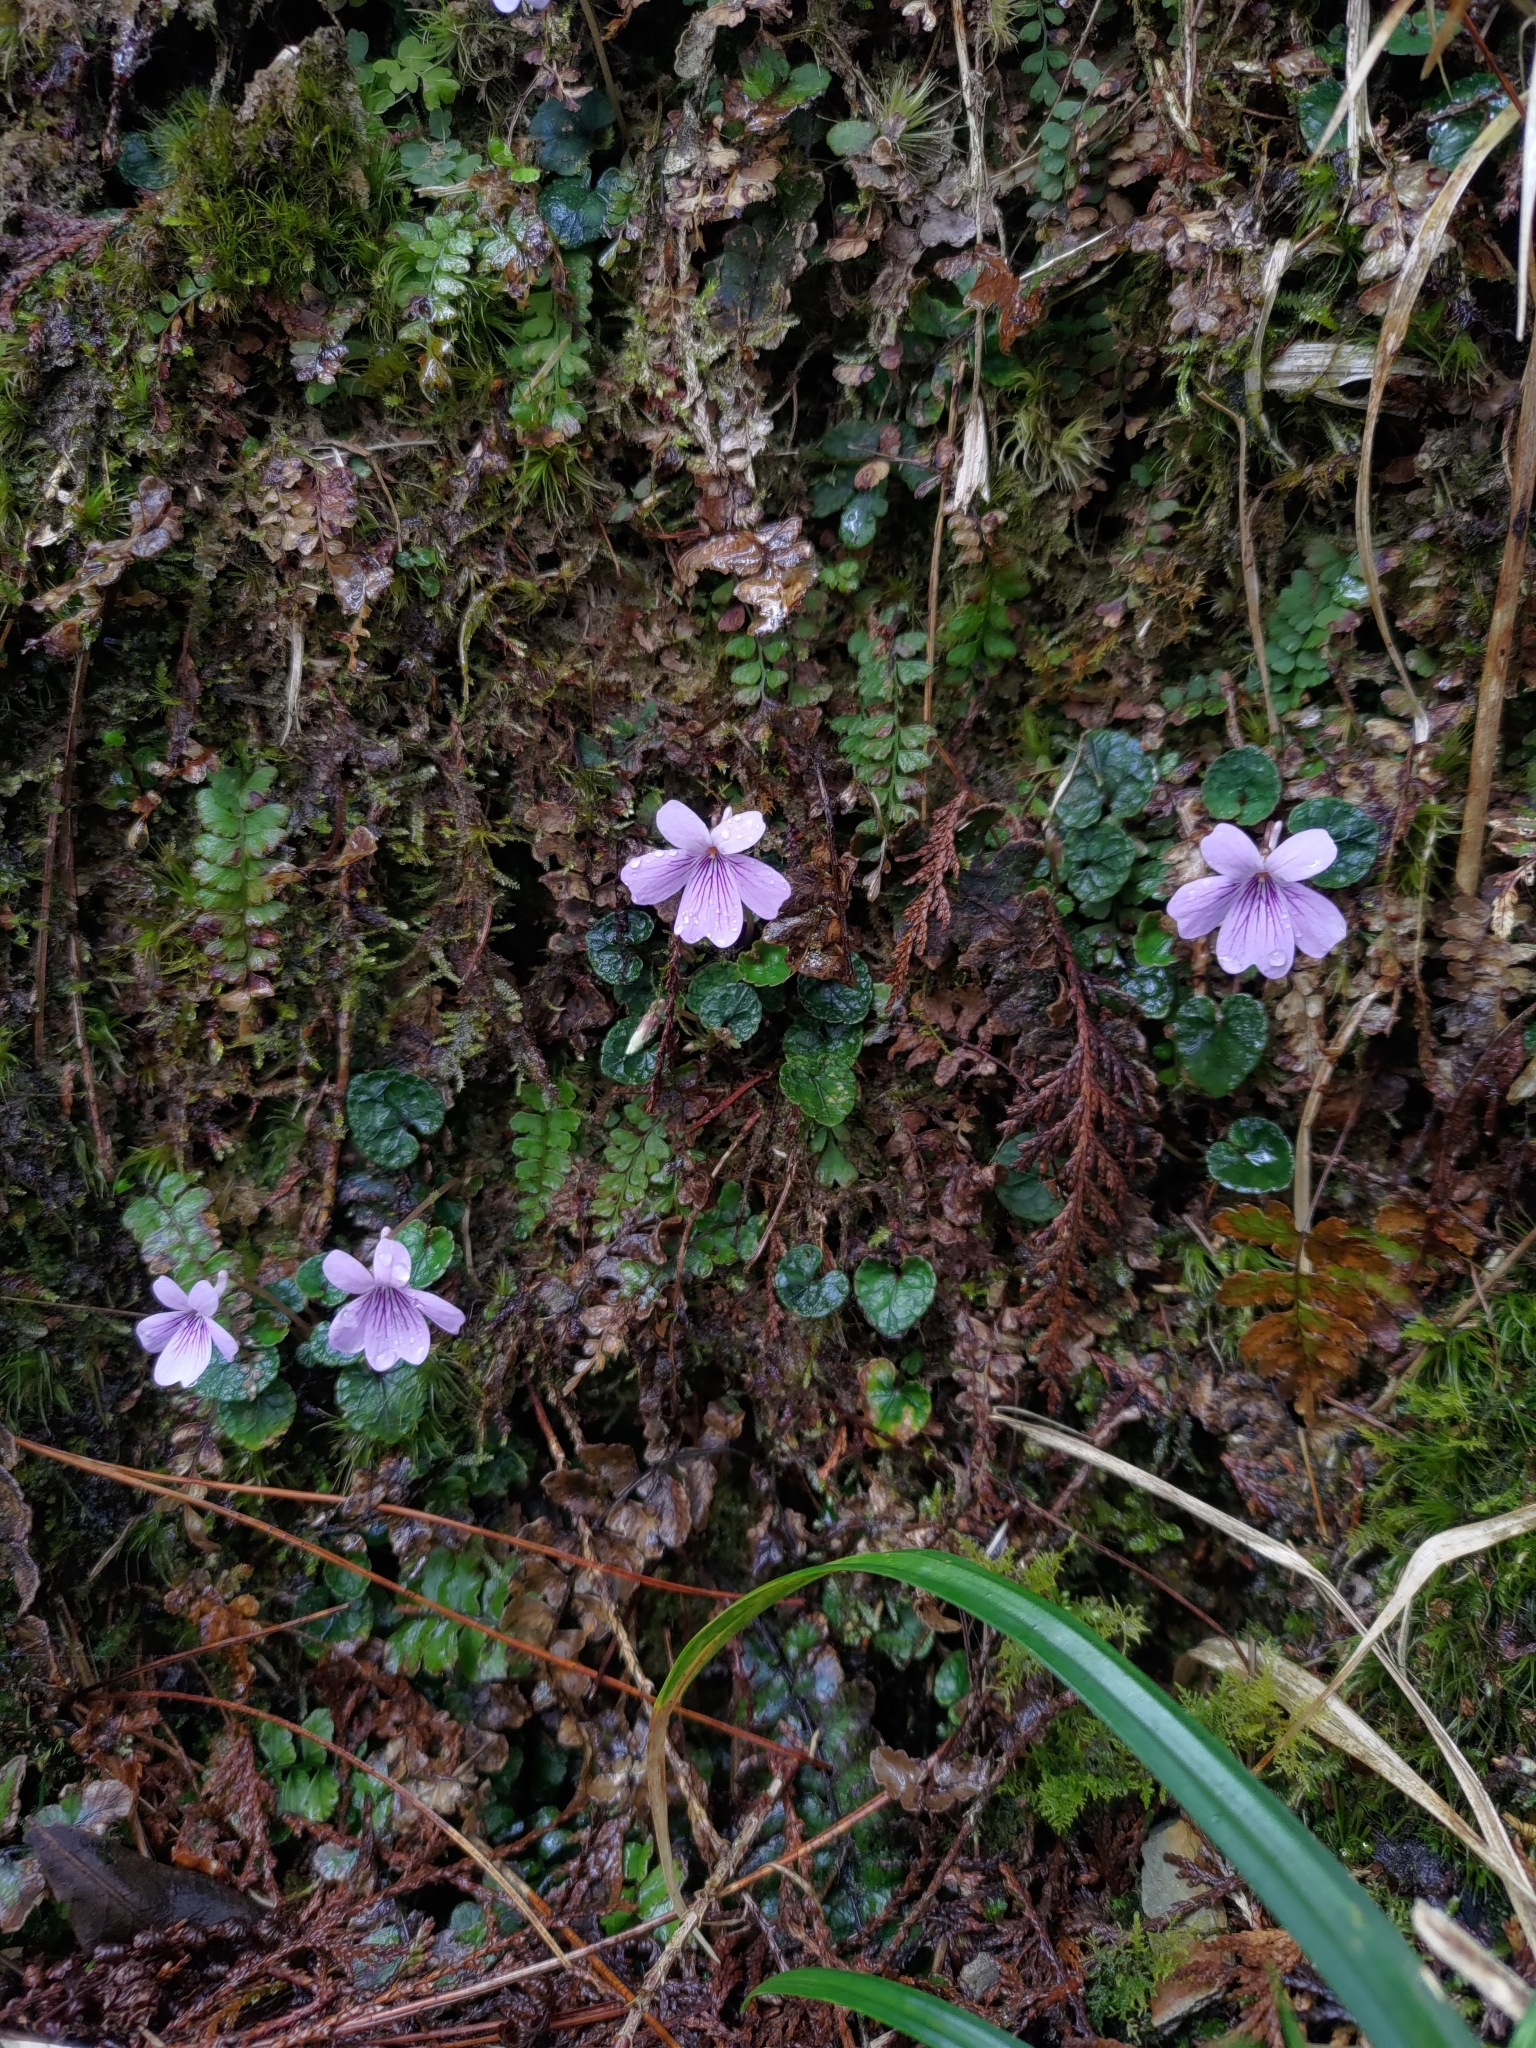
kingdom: Plantae
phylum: Tracheophyta
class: Magnoliopsida
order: Malpighiales
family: Violaceae
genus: Viola
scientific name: Viola formosana
